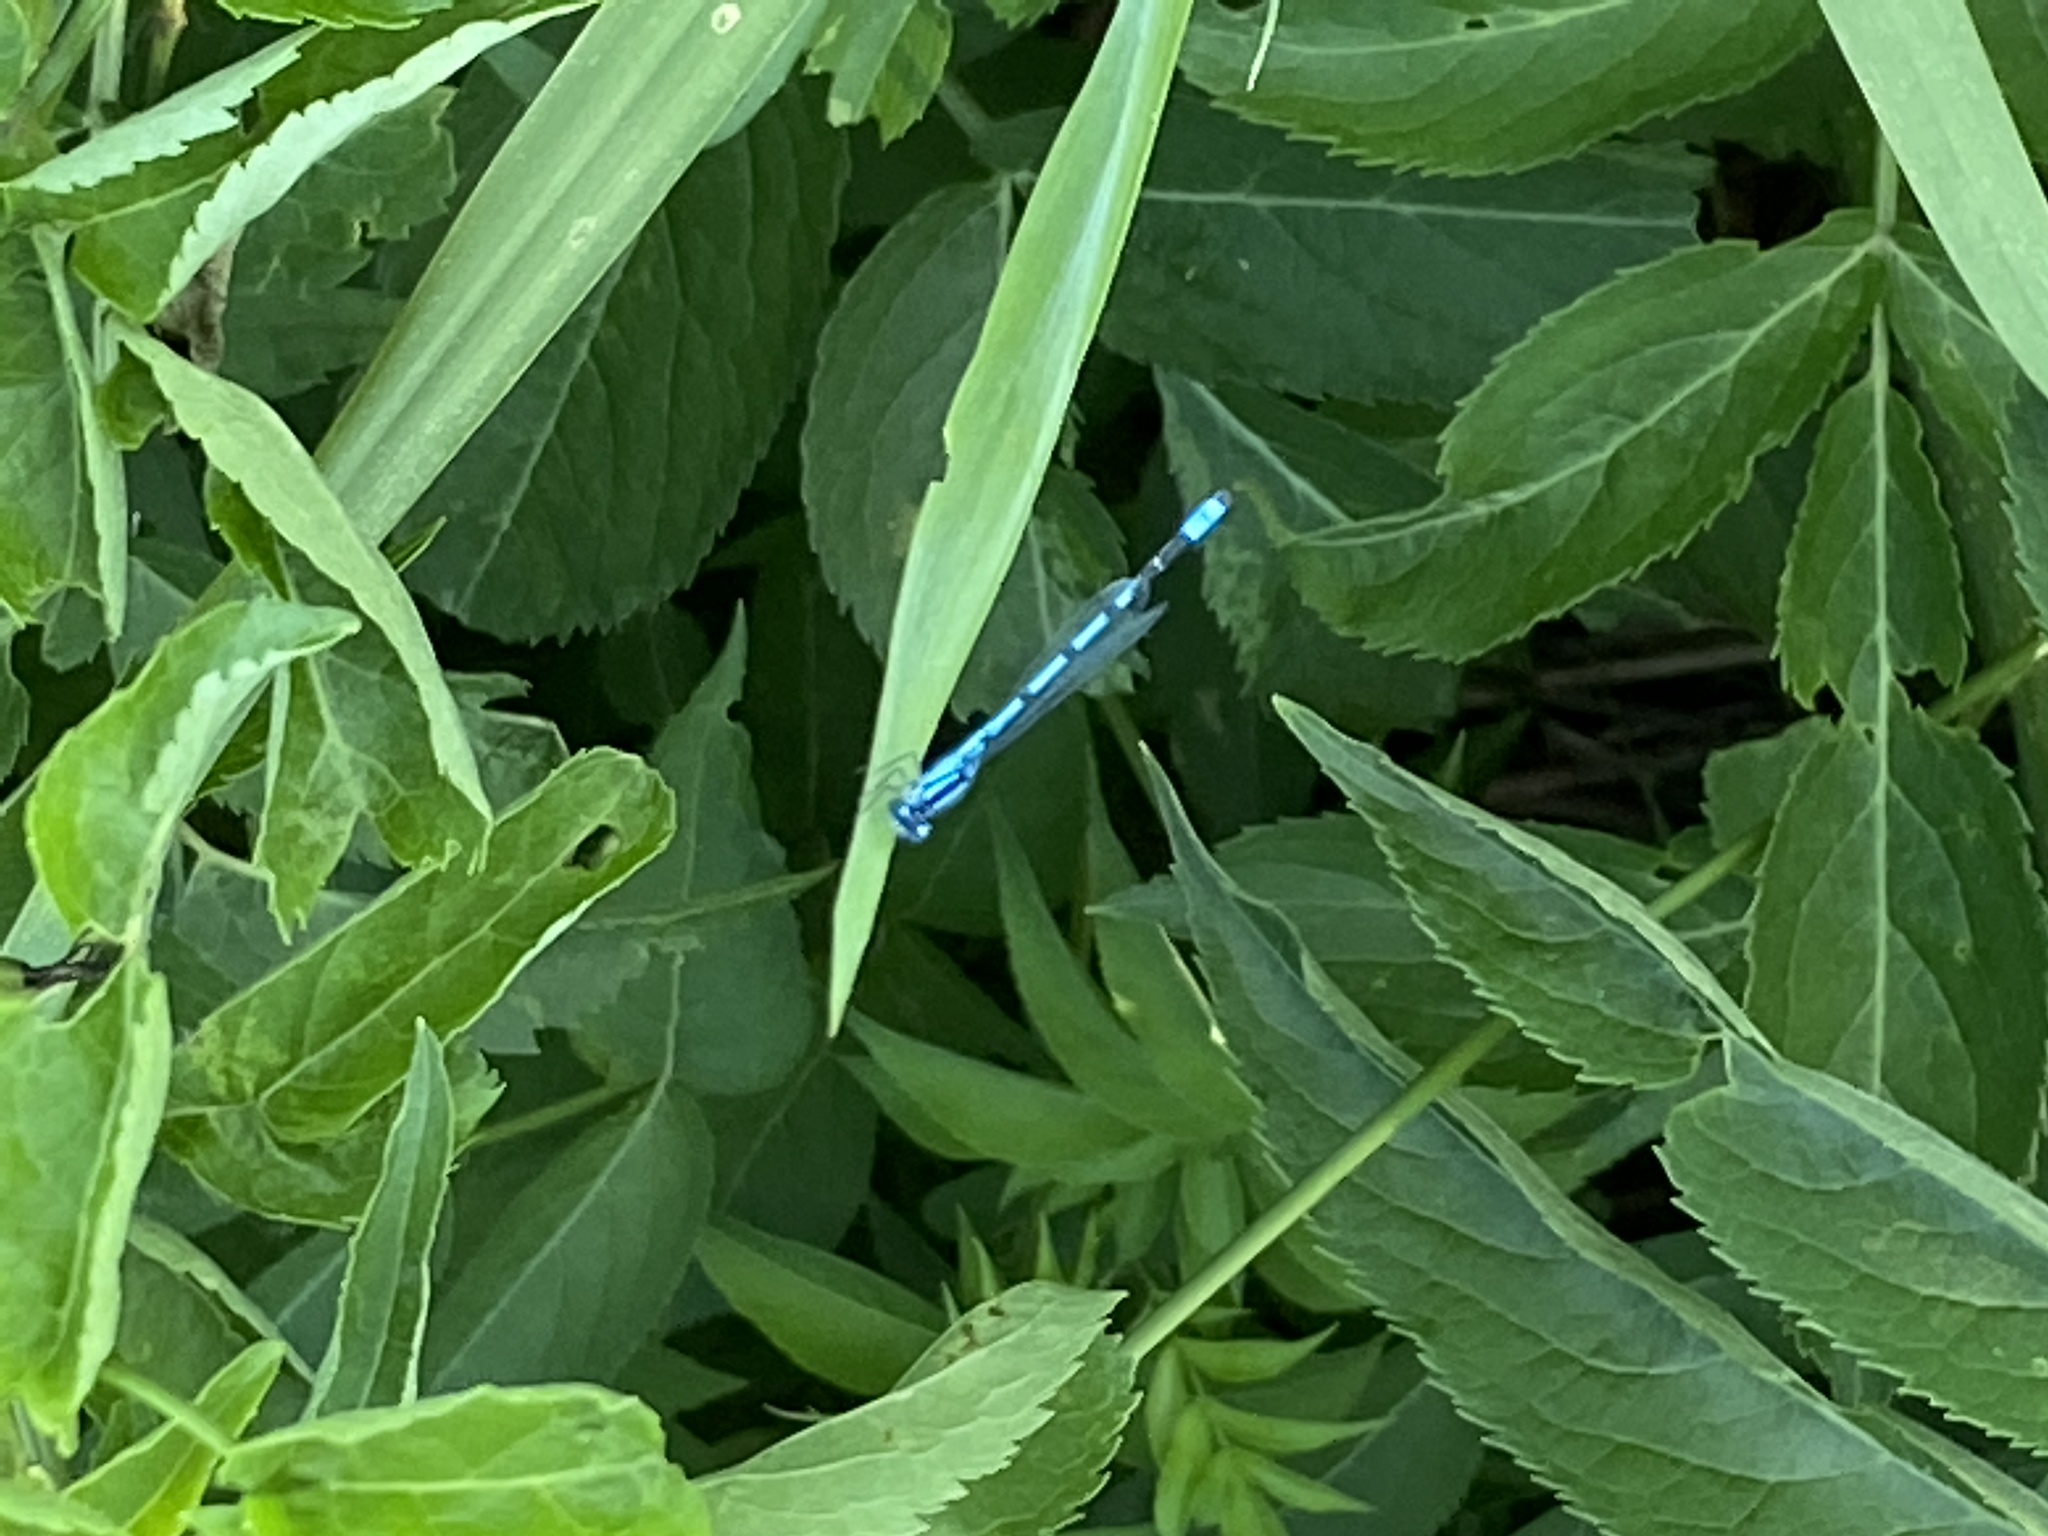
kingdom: Animalia
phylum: Arthropoda
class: Insecta
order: Odonata
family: Coenagrionidae
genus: Enallagma
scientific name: Enallagma annexum
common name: Northern bluet
